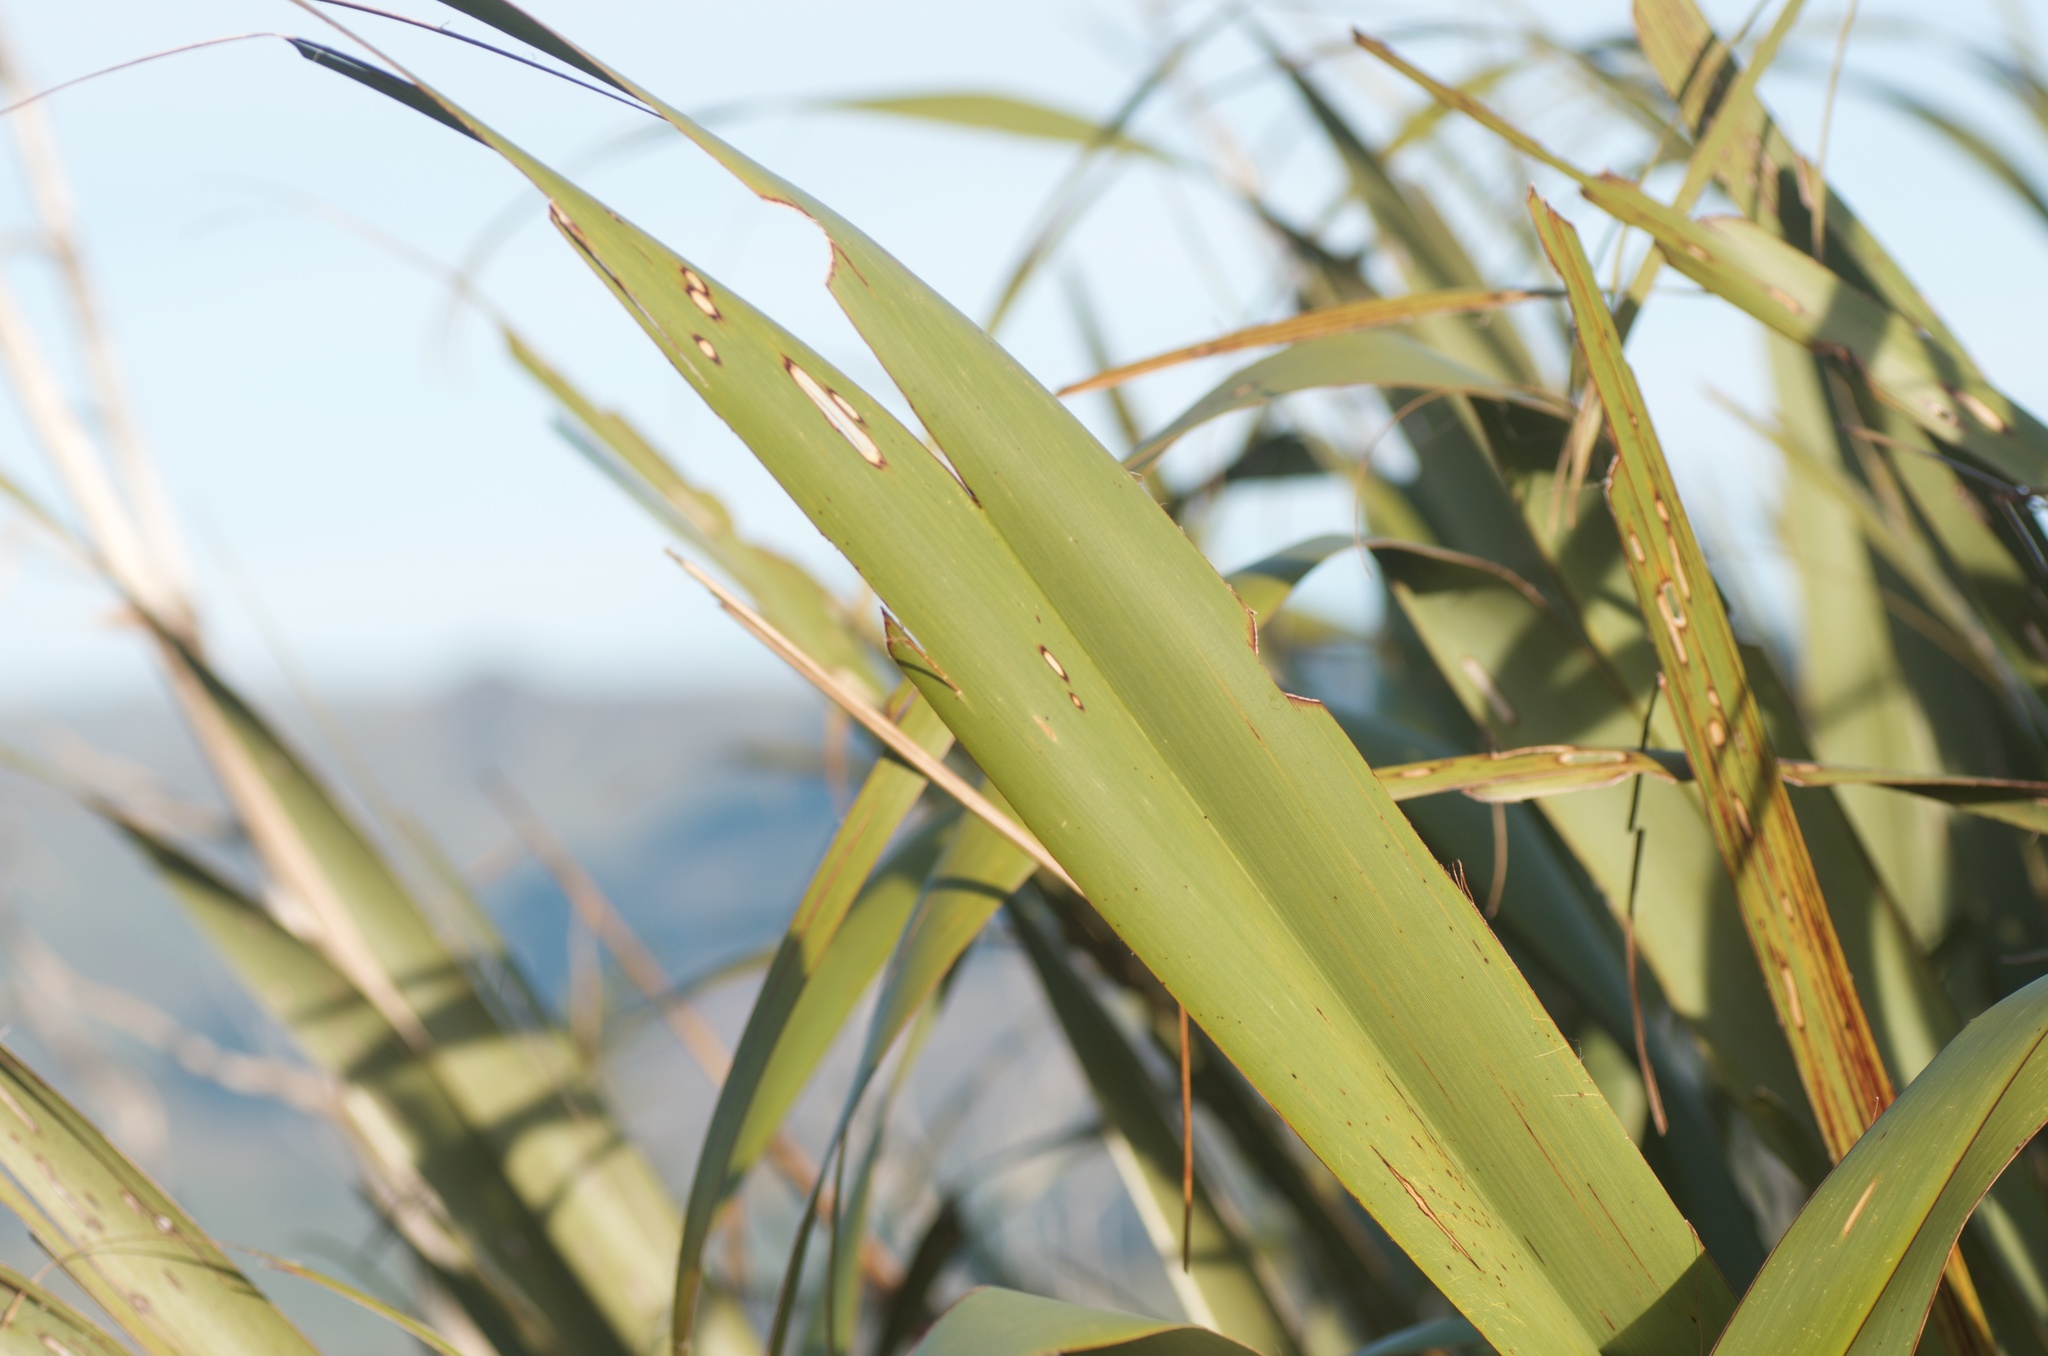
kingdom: Animalia
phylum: Arthropoda
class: Insecta
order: Lepidoptera
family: Noctuidae
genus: Ichneutica
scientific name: Ichneutica
